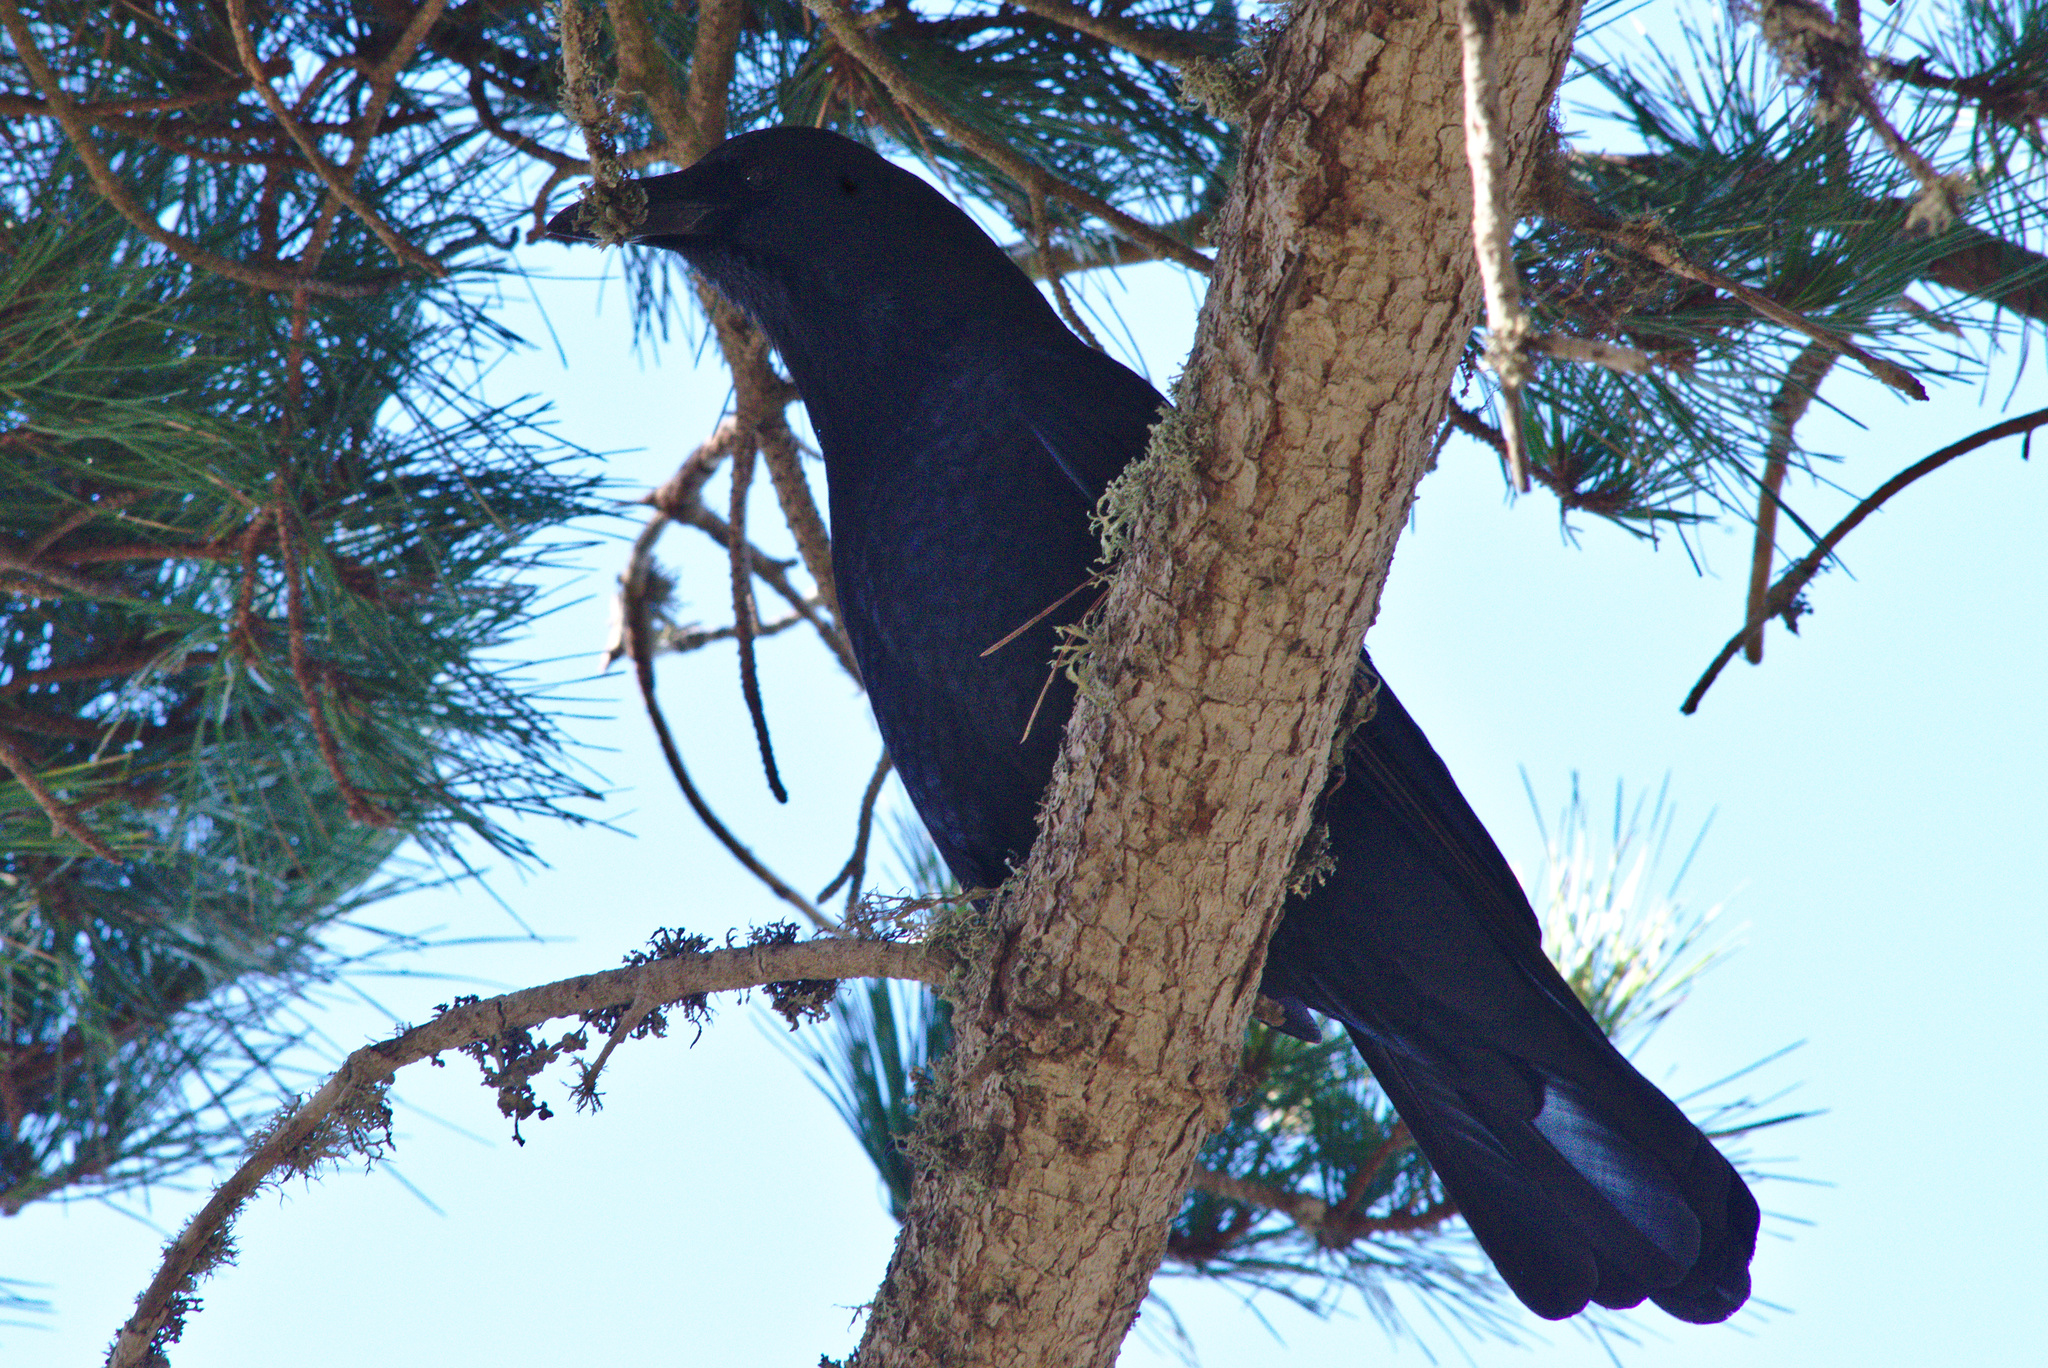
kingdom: Animalia
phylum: Chordata
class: Aves
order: Passeriformes
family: Corvidae
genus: Corvus
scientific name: Corvus brachyrhynchos
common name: American crow
